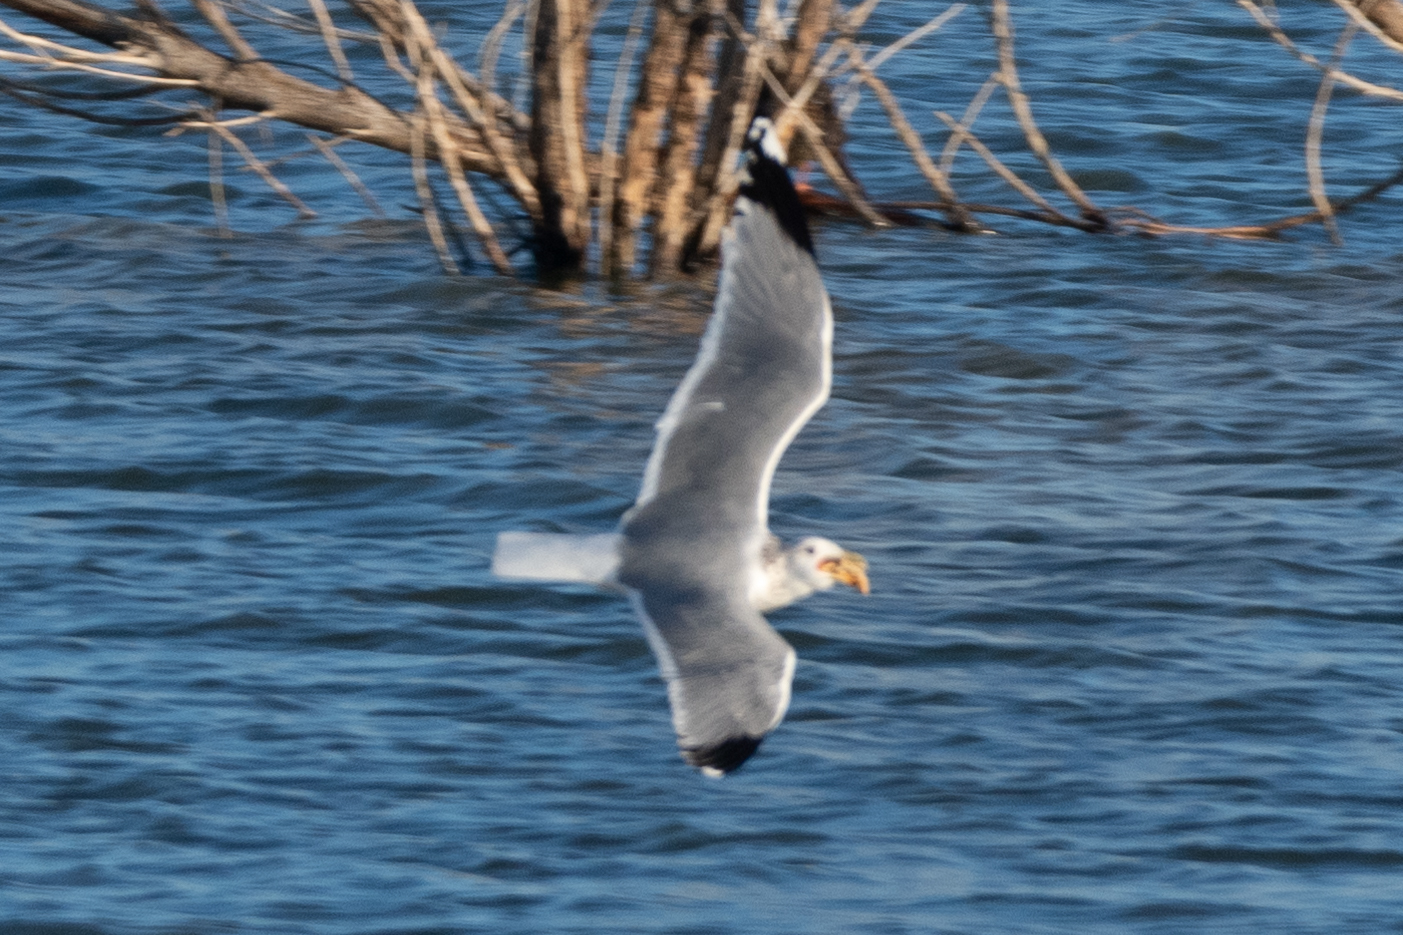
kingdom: Animalia
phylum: Chordata
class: Aves
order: Charadriiformes
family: Laridae
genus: Larus
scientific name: Larus californicus
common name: California gull
